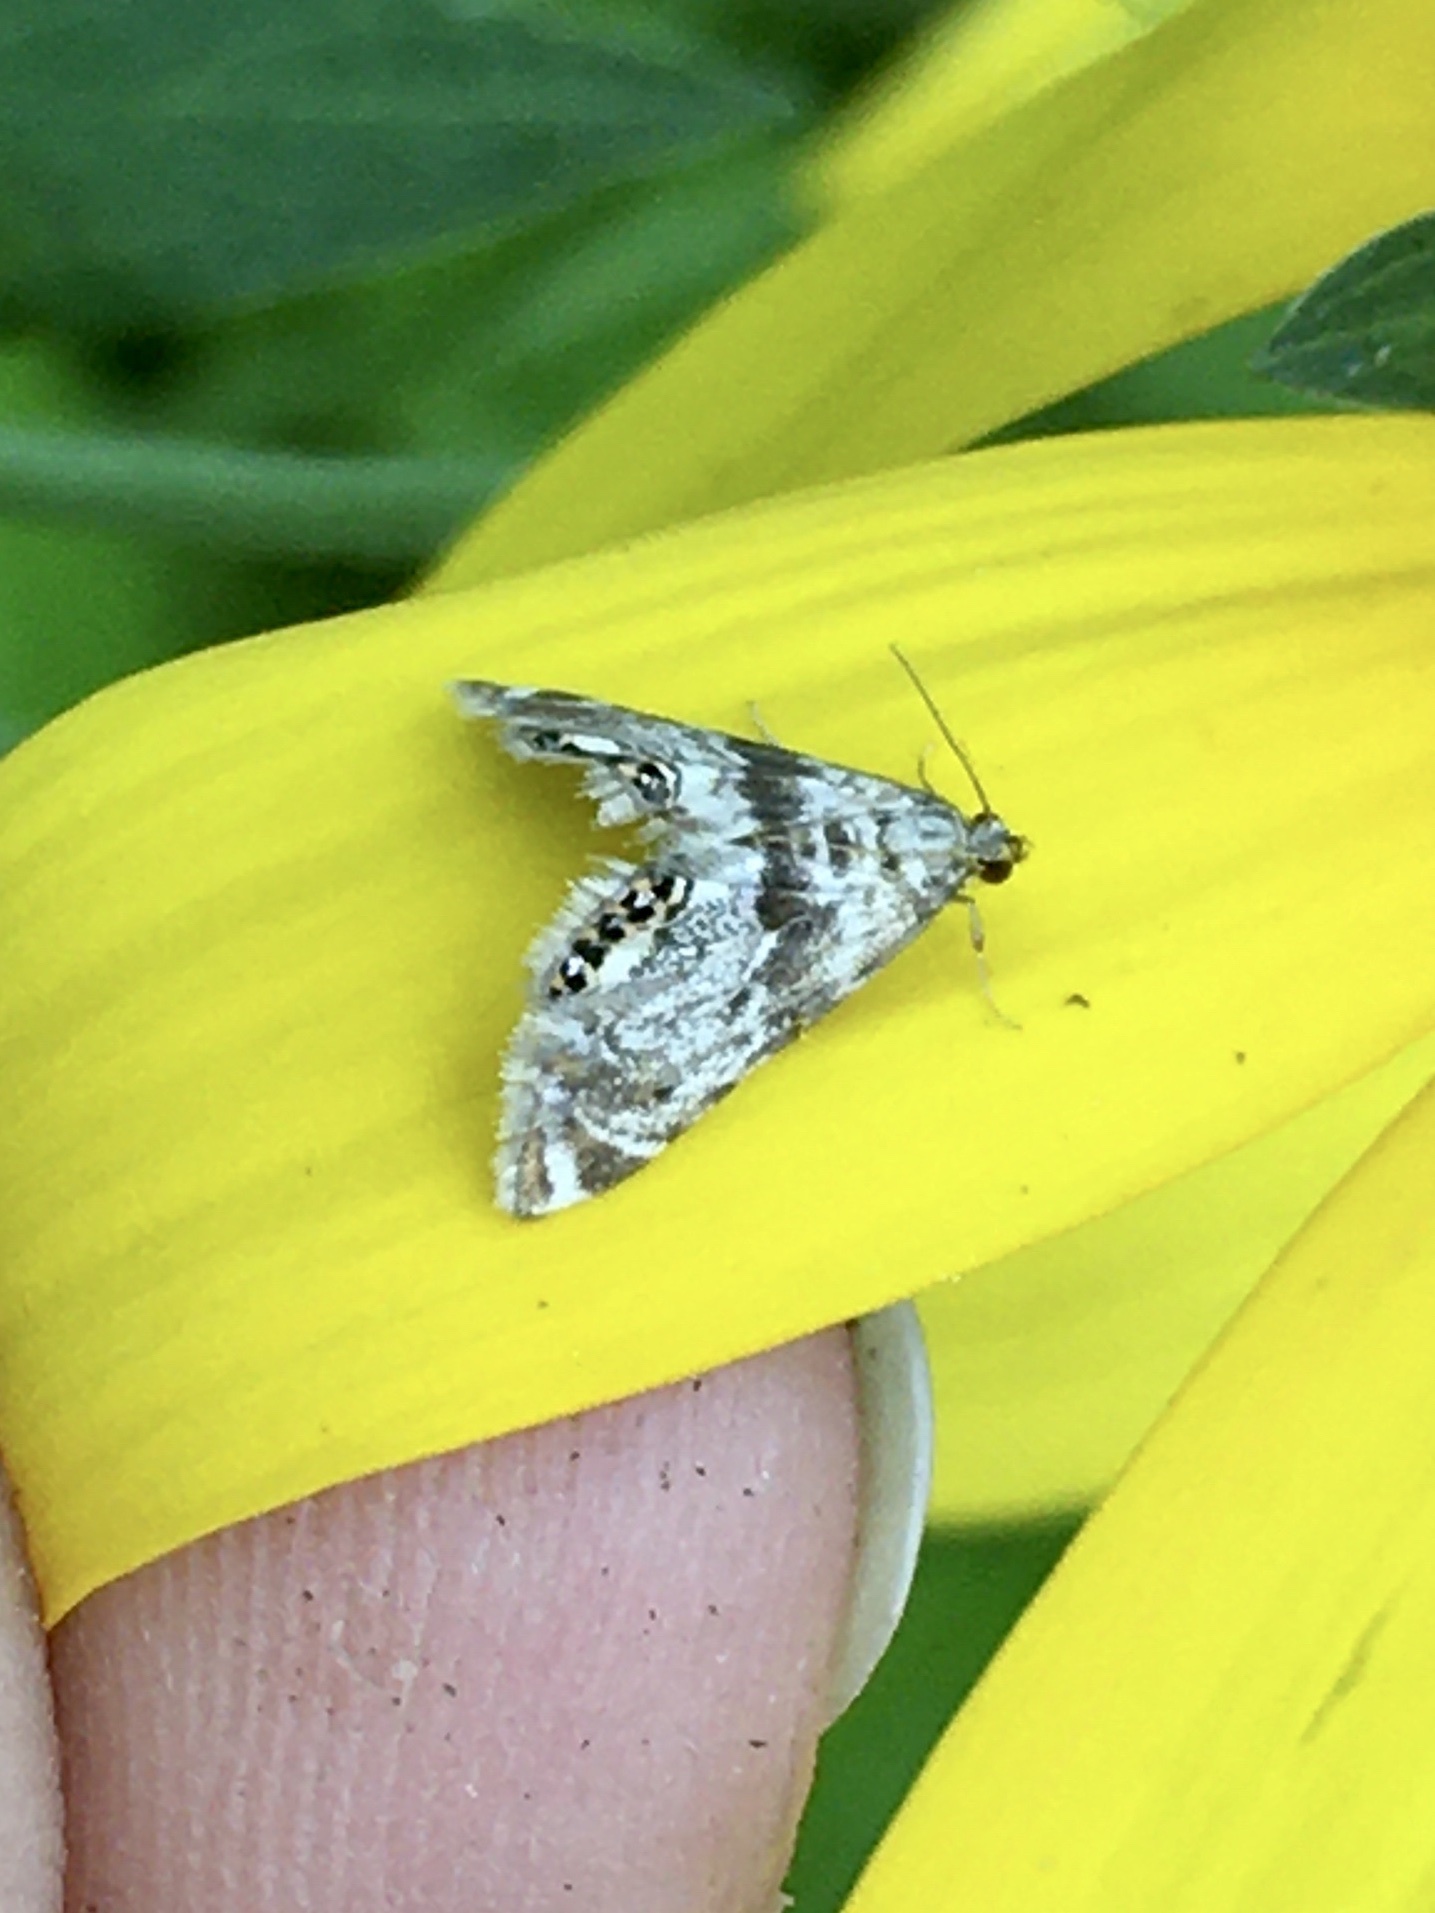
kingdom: Animalia
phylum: Arthropoda
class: Insecta
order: Lepidoptera
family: Crambidae
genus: Petrophila
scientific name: Petrophila fulicalis
